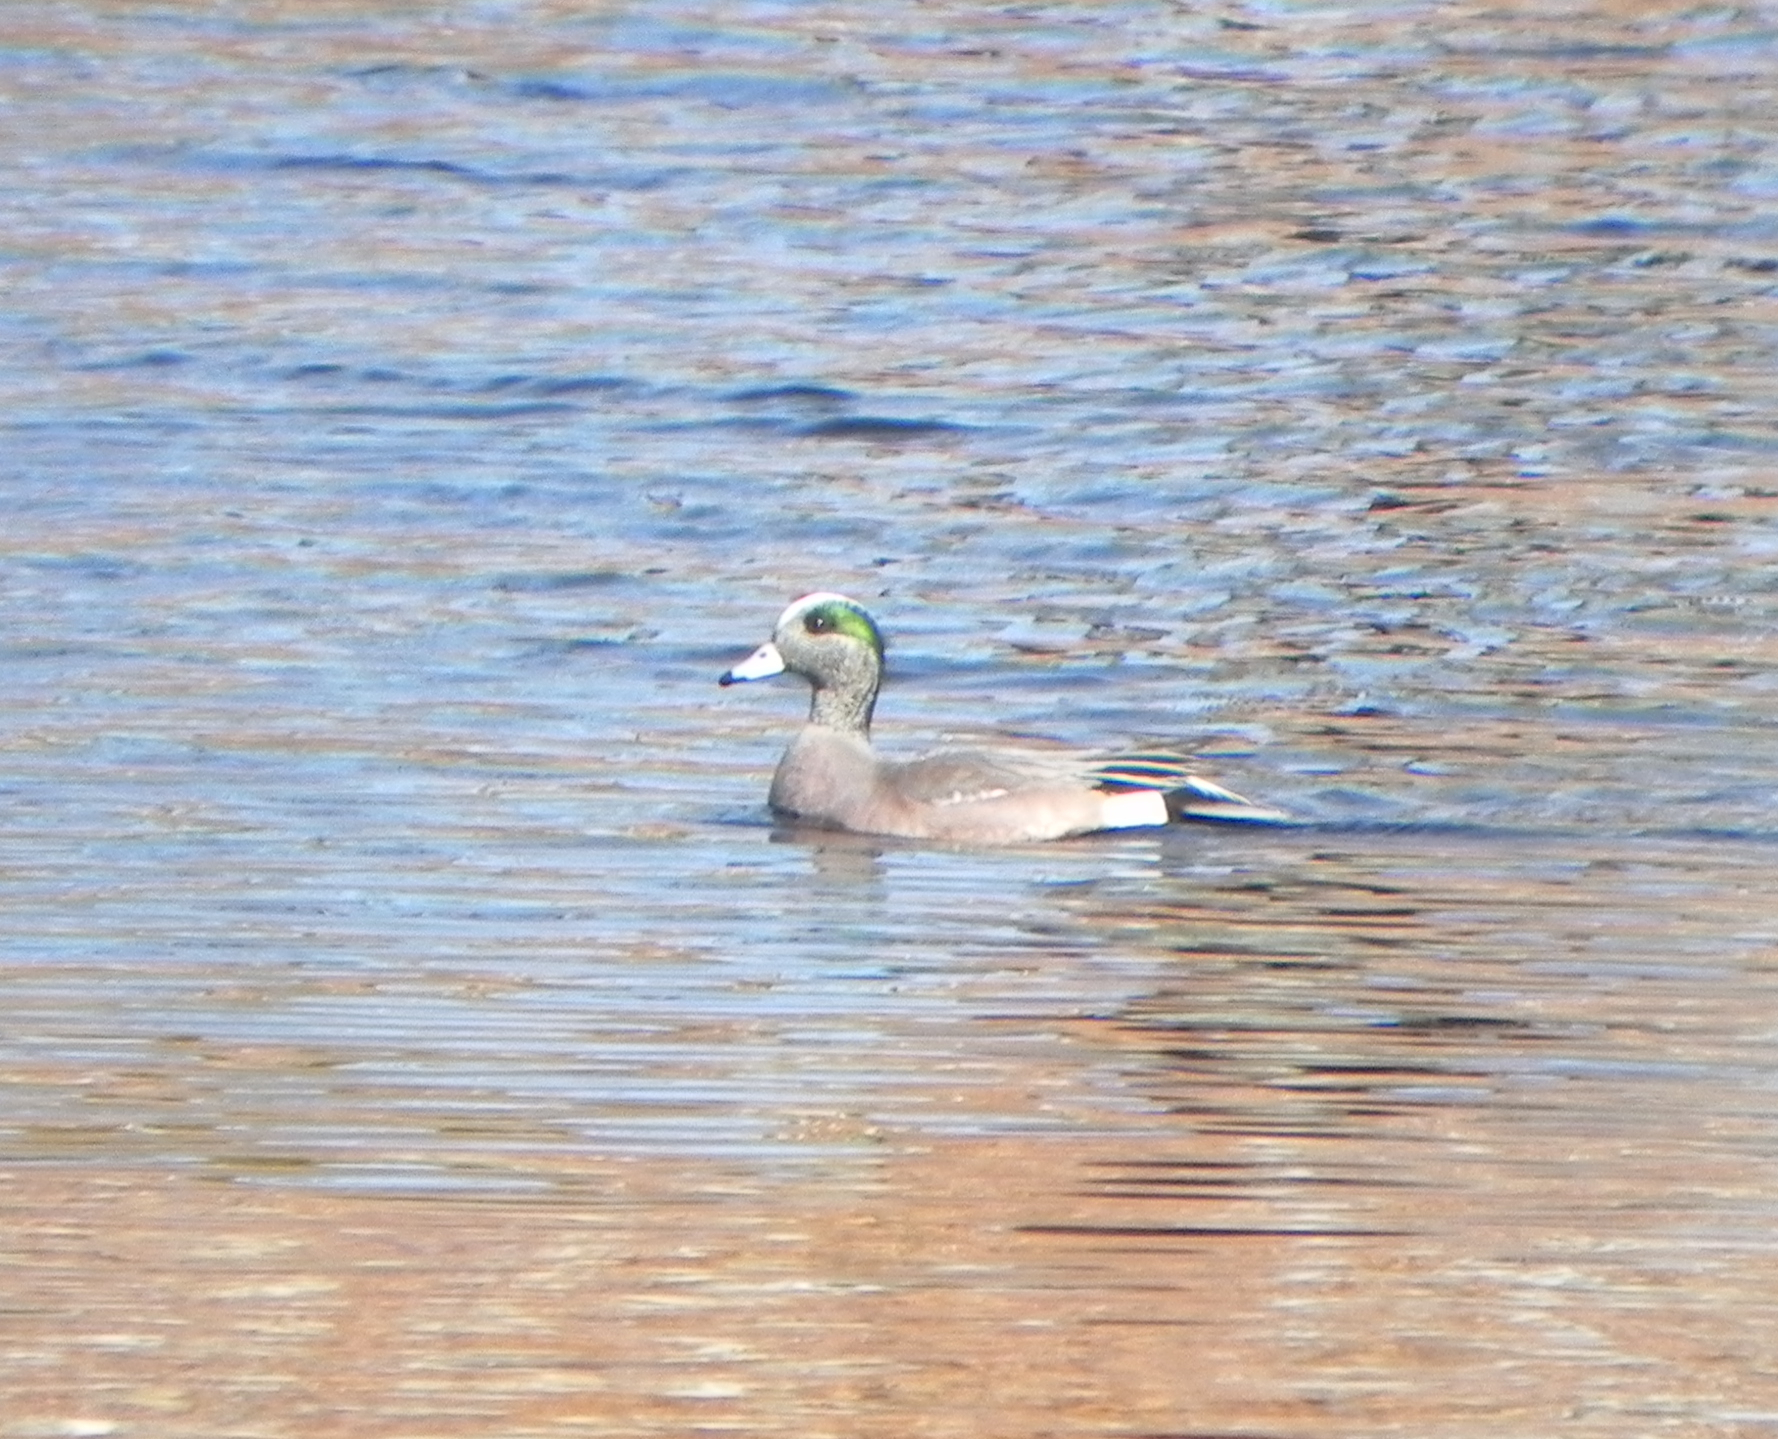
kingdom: Animalia
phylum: Chordata
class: Aves
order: Anseriformes
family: Anatidae
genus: Mareca
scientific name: Mareca americana
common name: American wigeon
